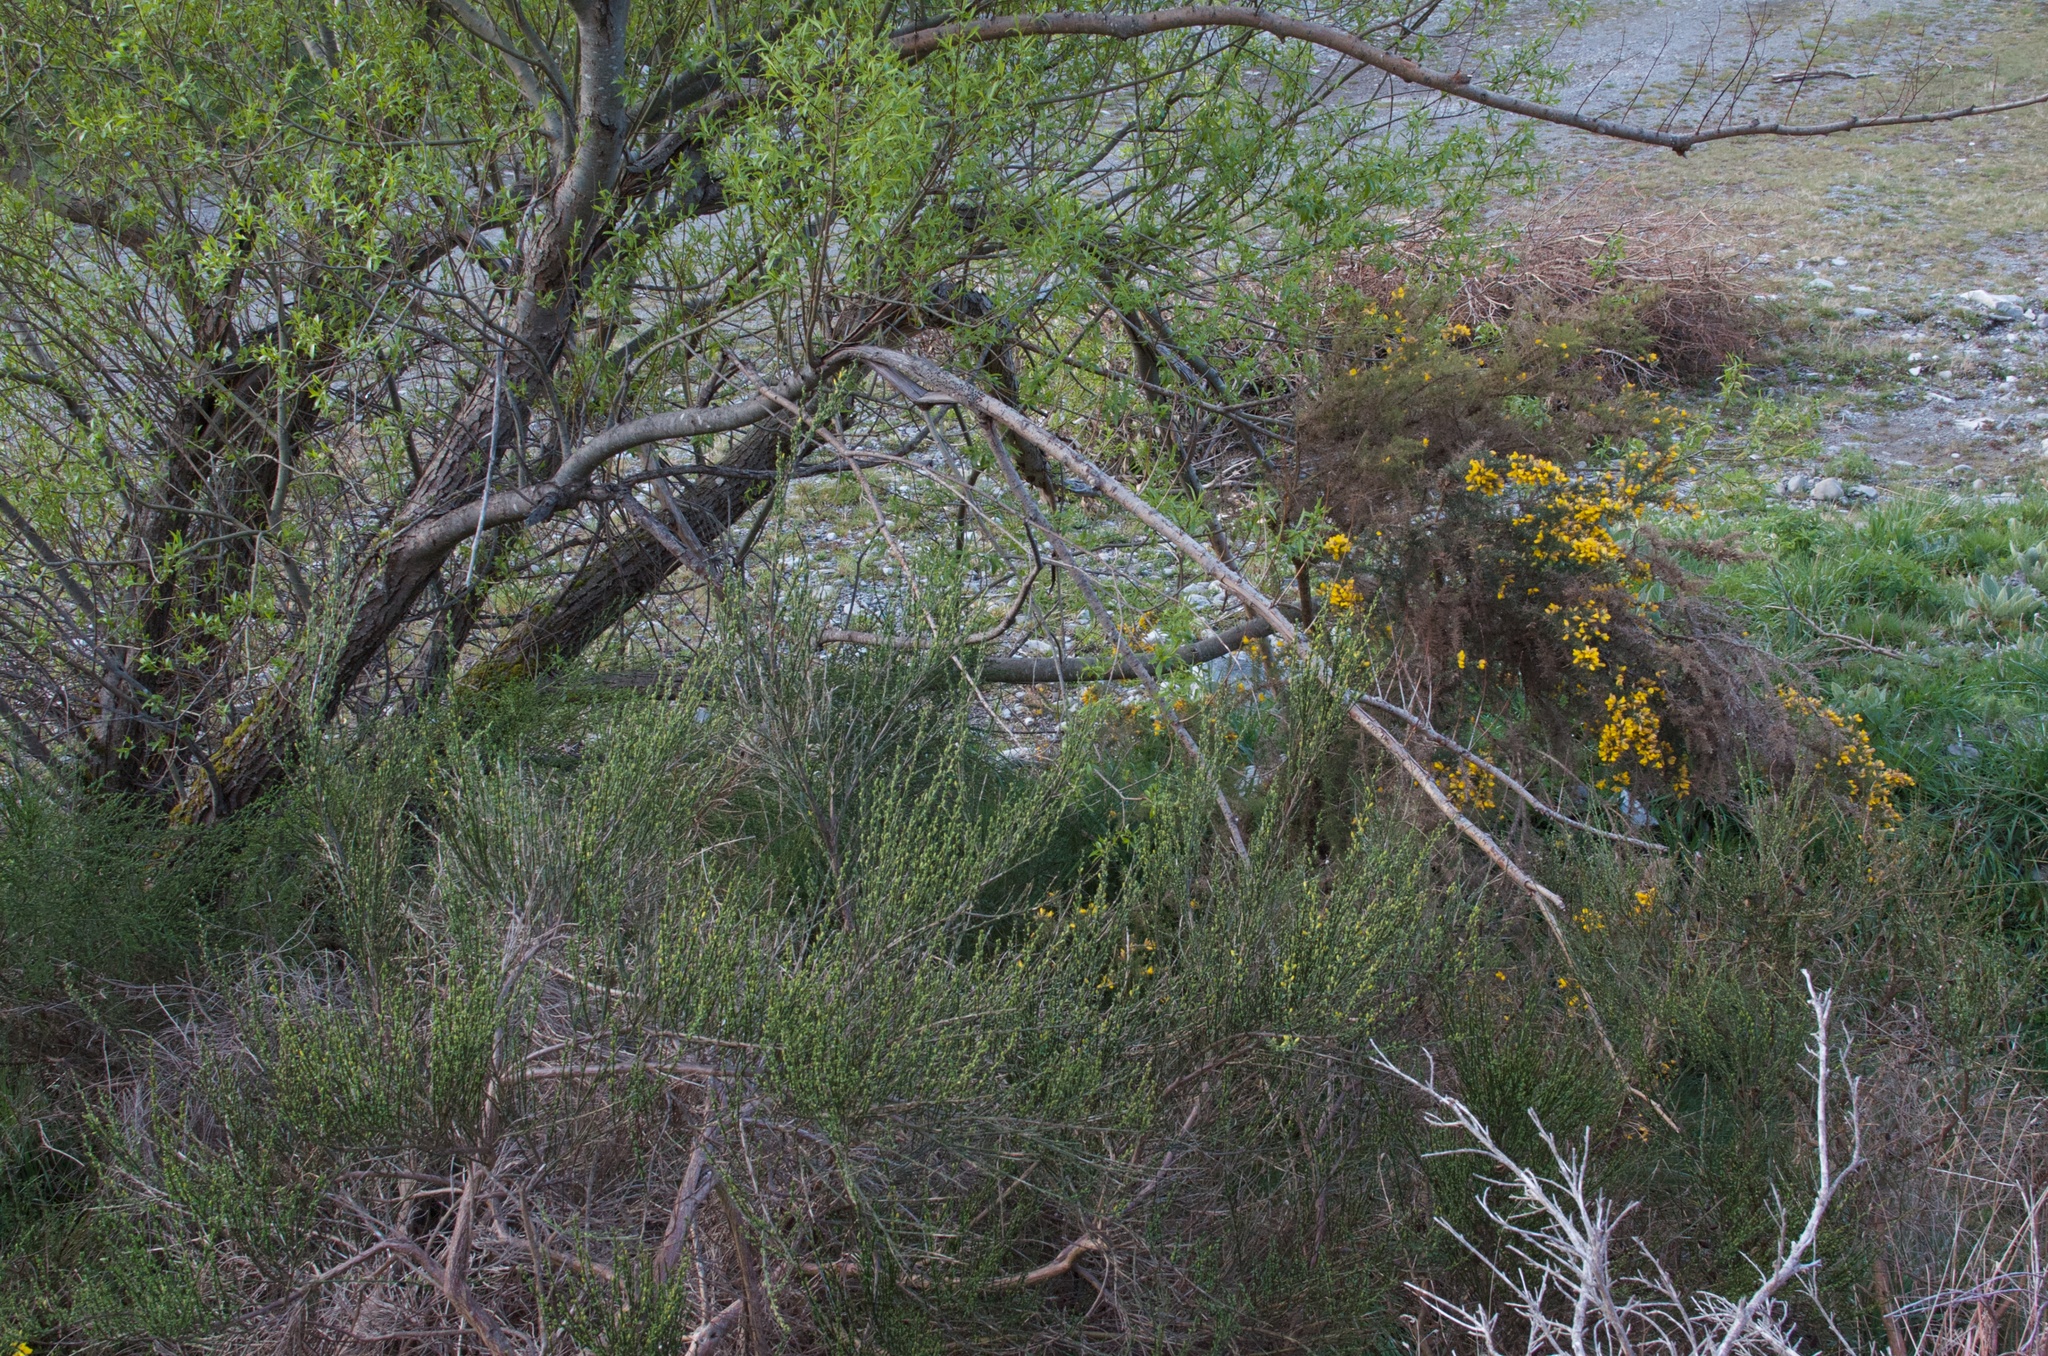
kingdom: Plantae
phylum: Tracheophyta
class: Magnoliopsida
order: Fabales
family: Fabaceae
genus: Ulex
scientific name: Ulex europaeus
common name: Common gorse
